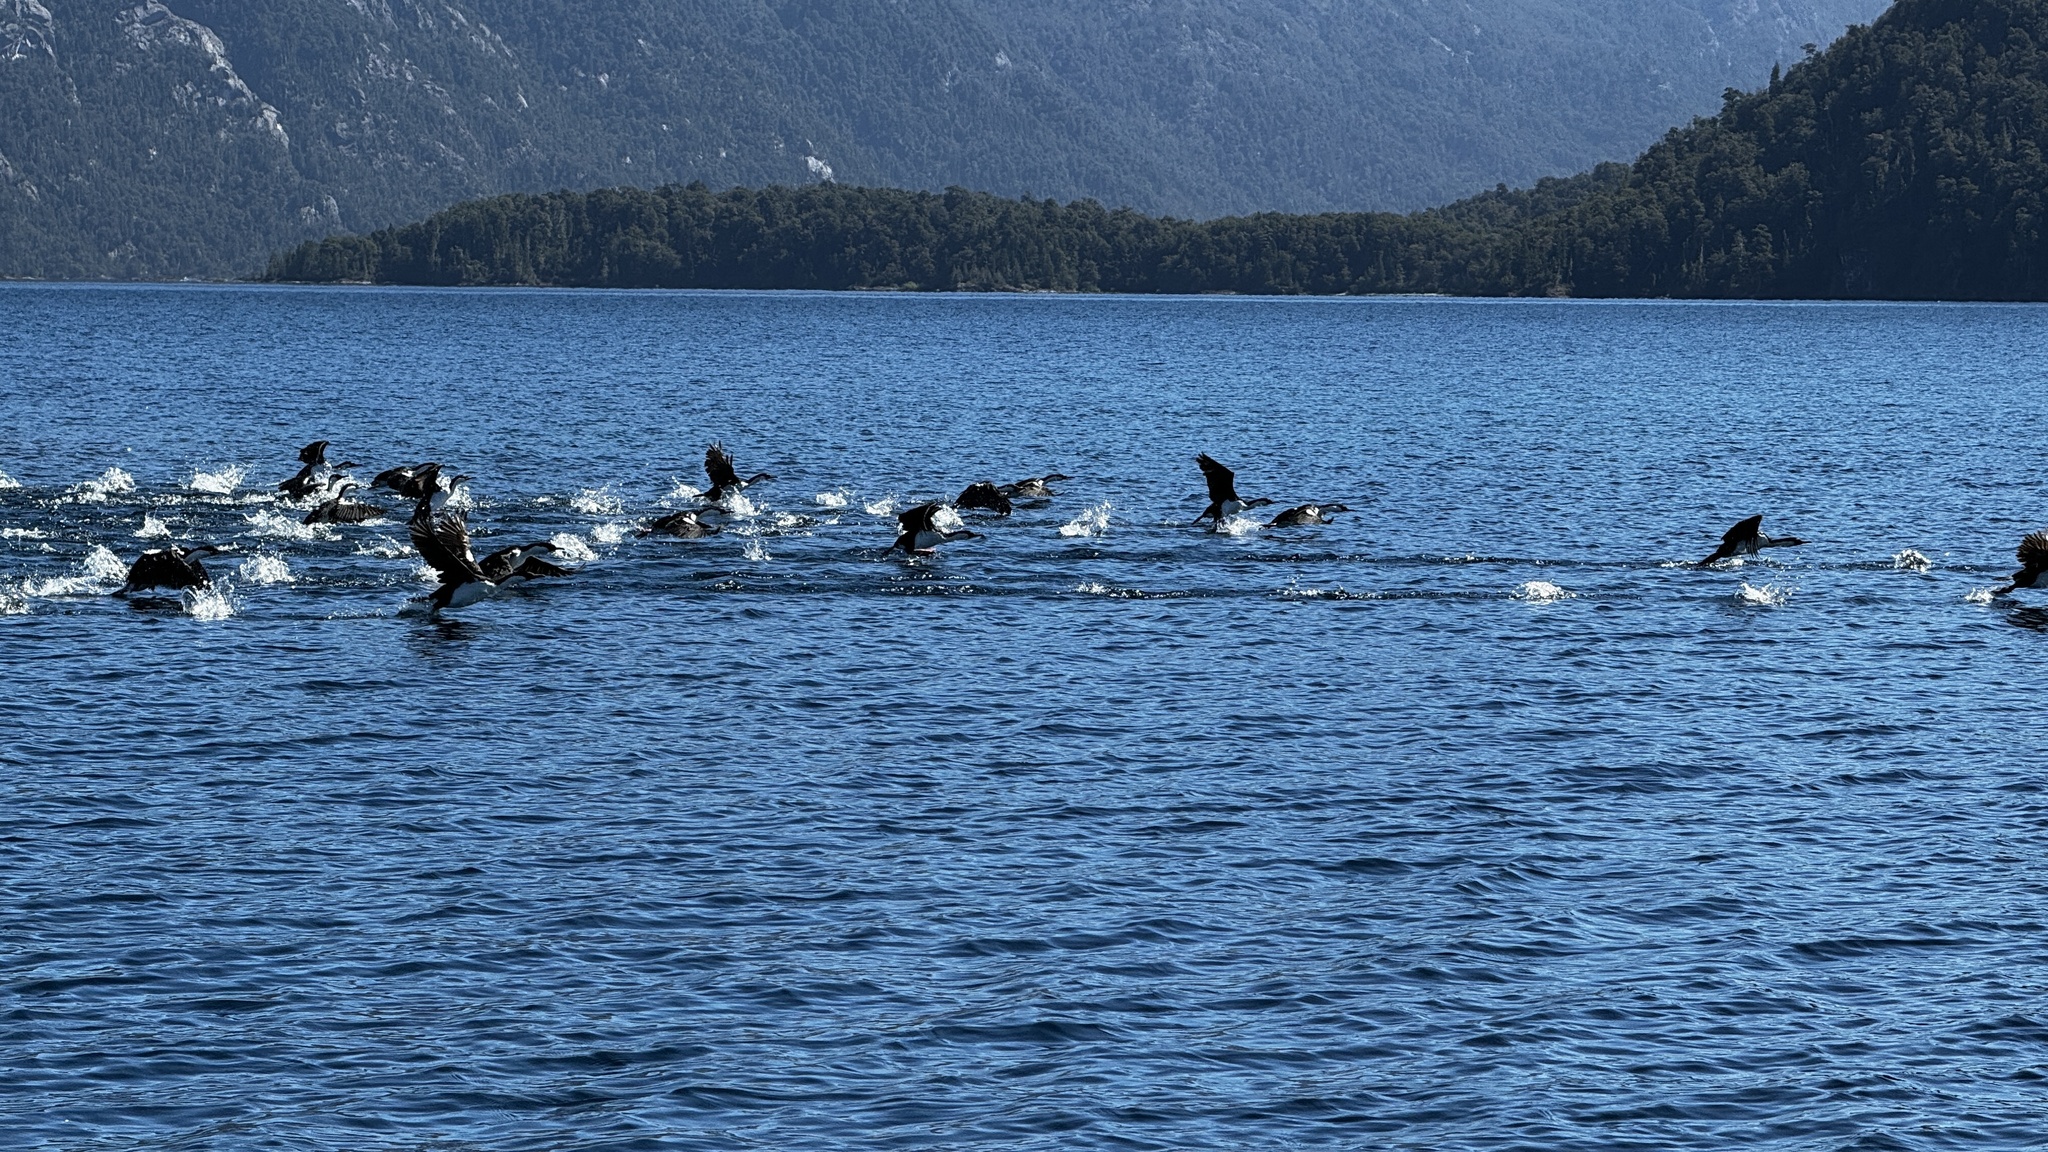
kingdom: Animalia
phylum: Chordata
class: Aves
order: Suliformes
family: Phalacrocoracidae
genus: Leucocarbo
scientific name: Leucocarbo atriceps
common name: Imperial shag
